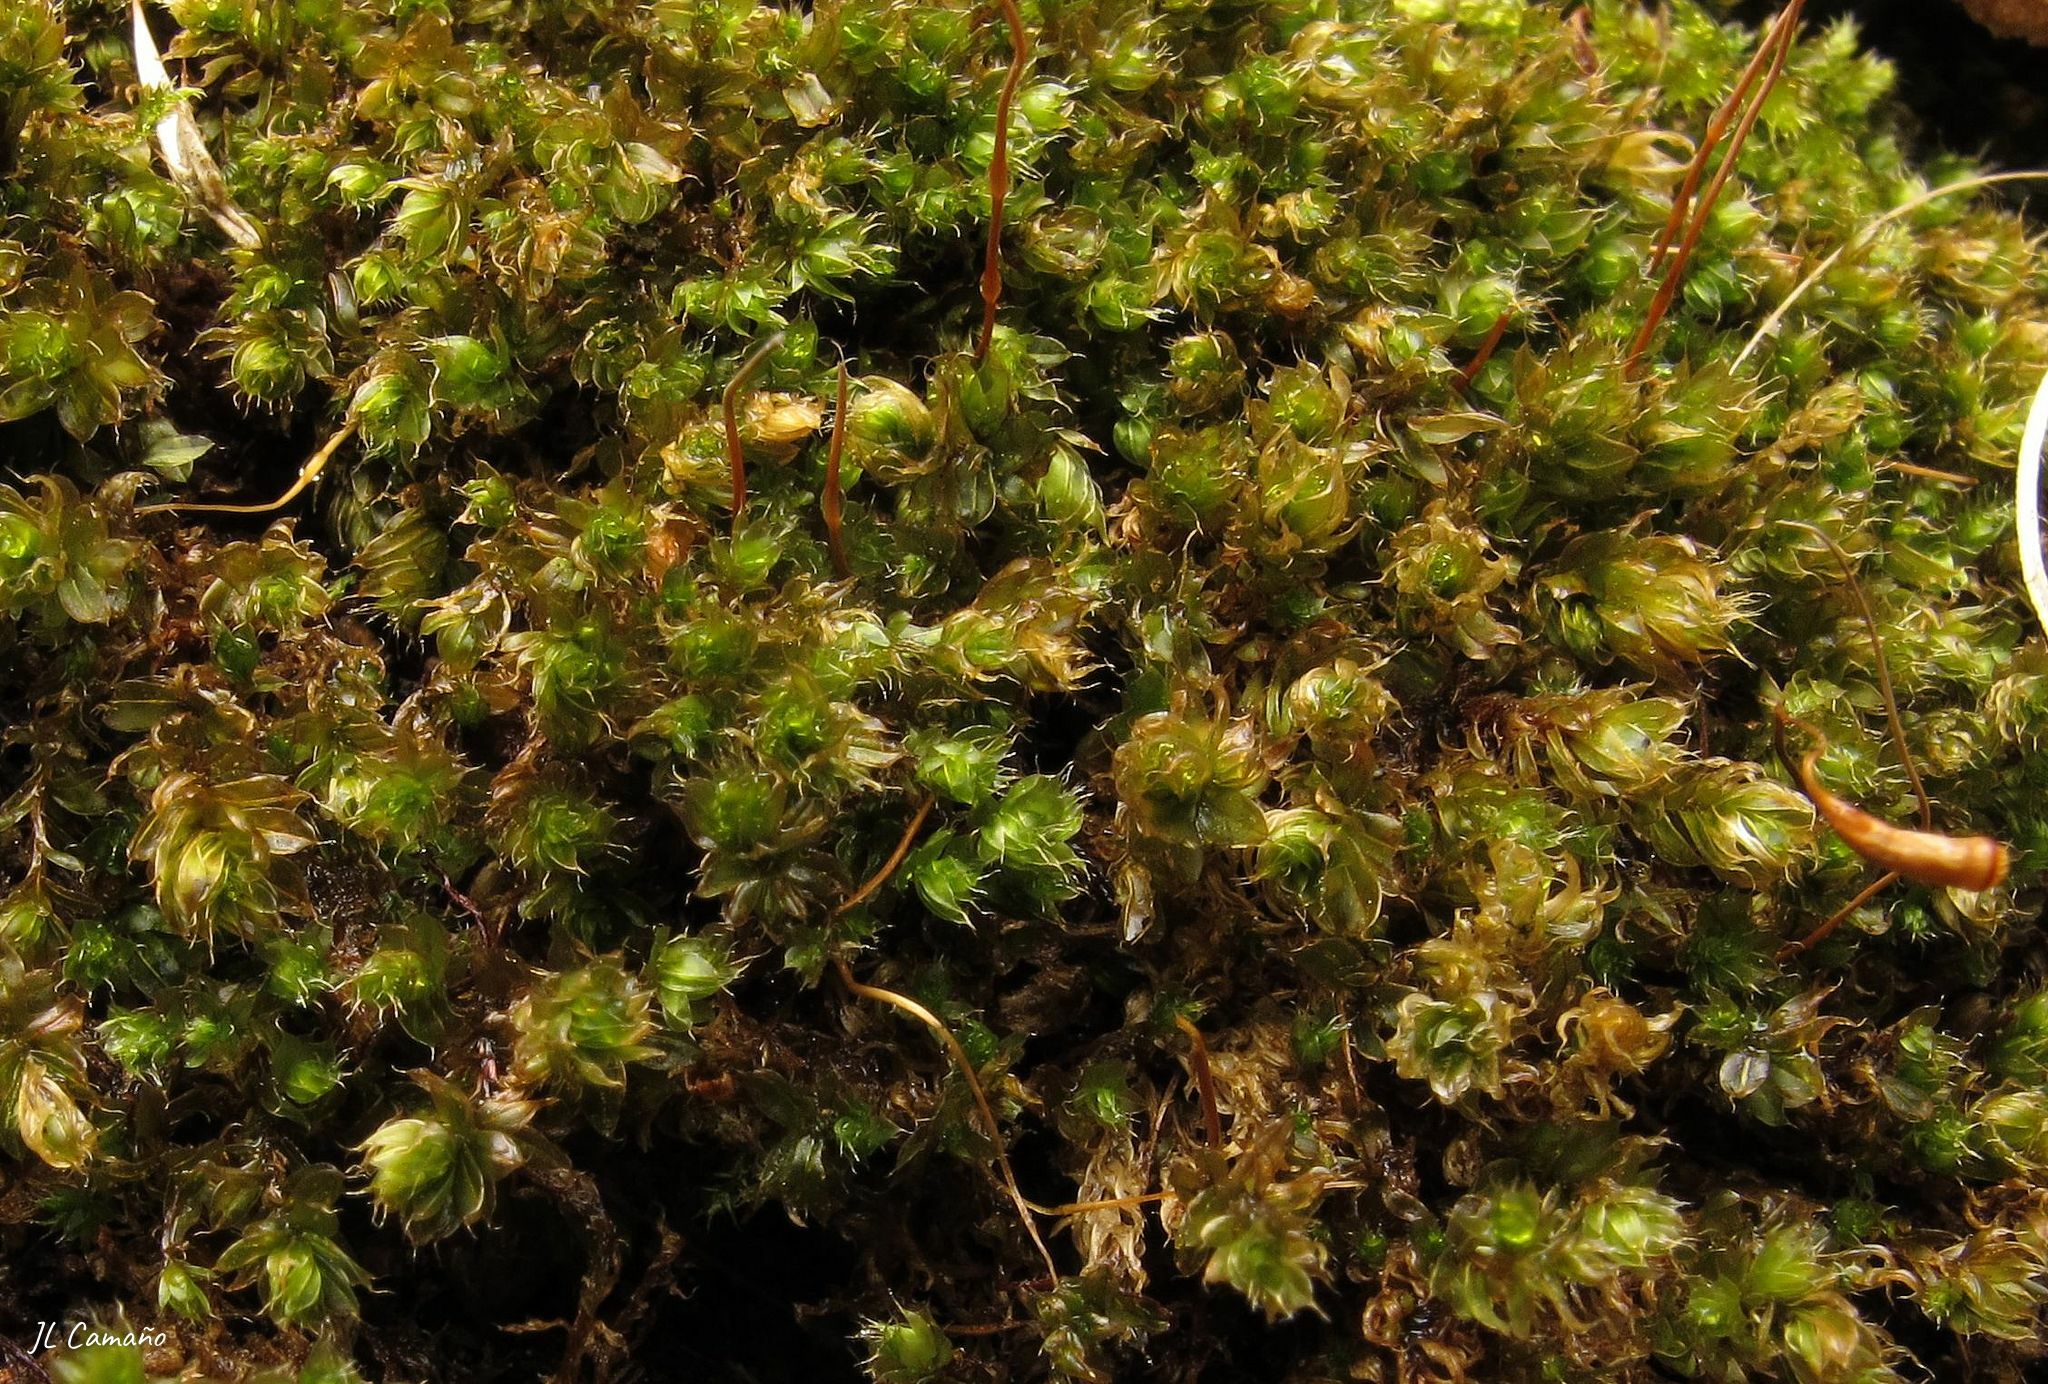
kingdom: Plantae
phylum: Bryophyta
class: Bryopsida
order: Bryales
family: Bryaceae
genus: Rosulabryum
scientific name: Rosulabryum capillare
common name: Capillary thread-moss
